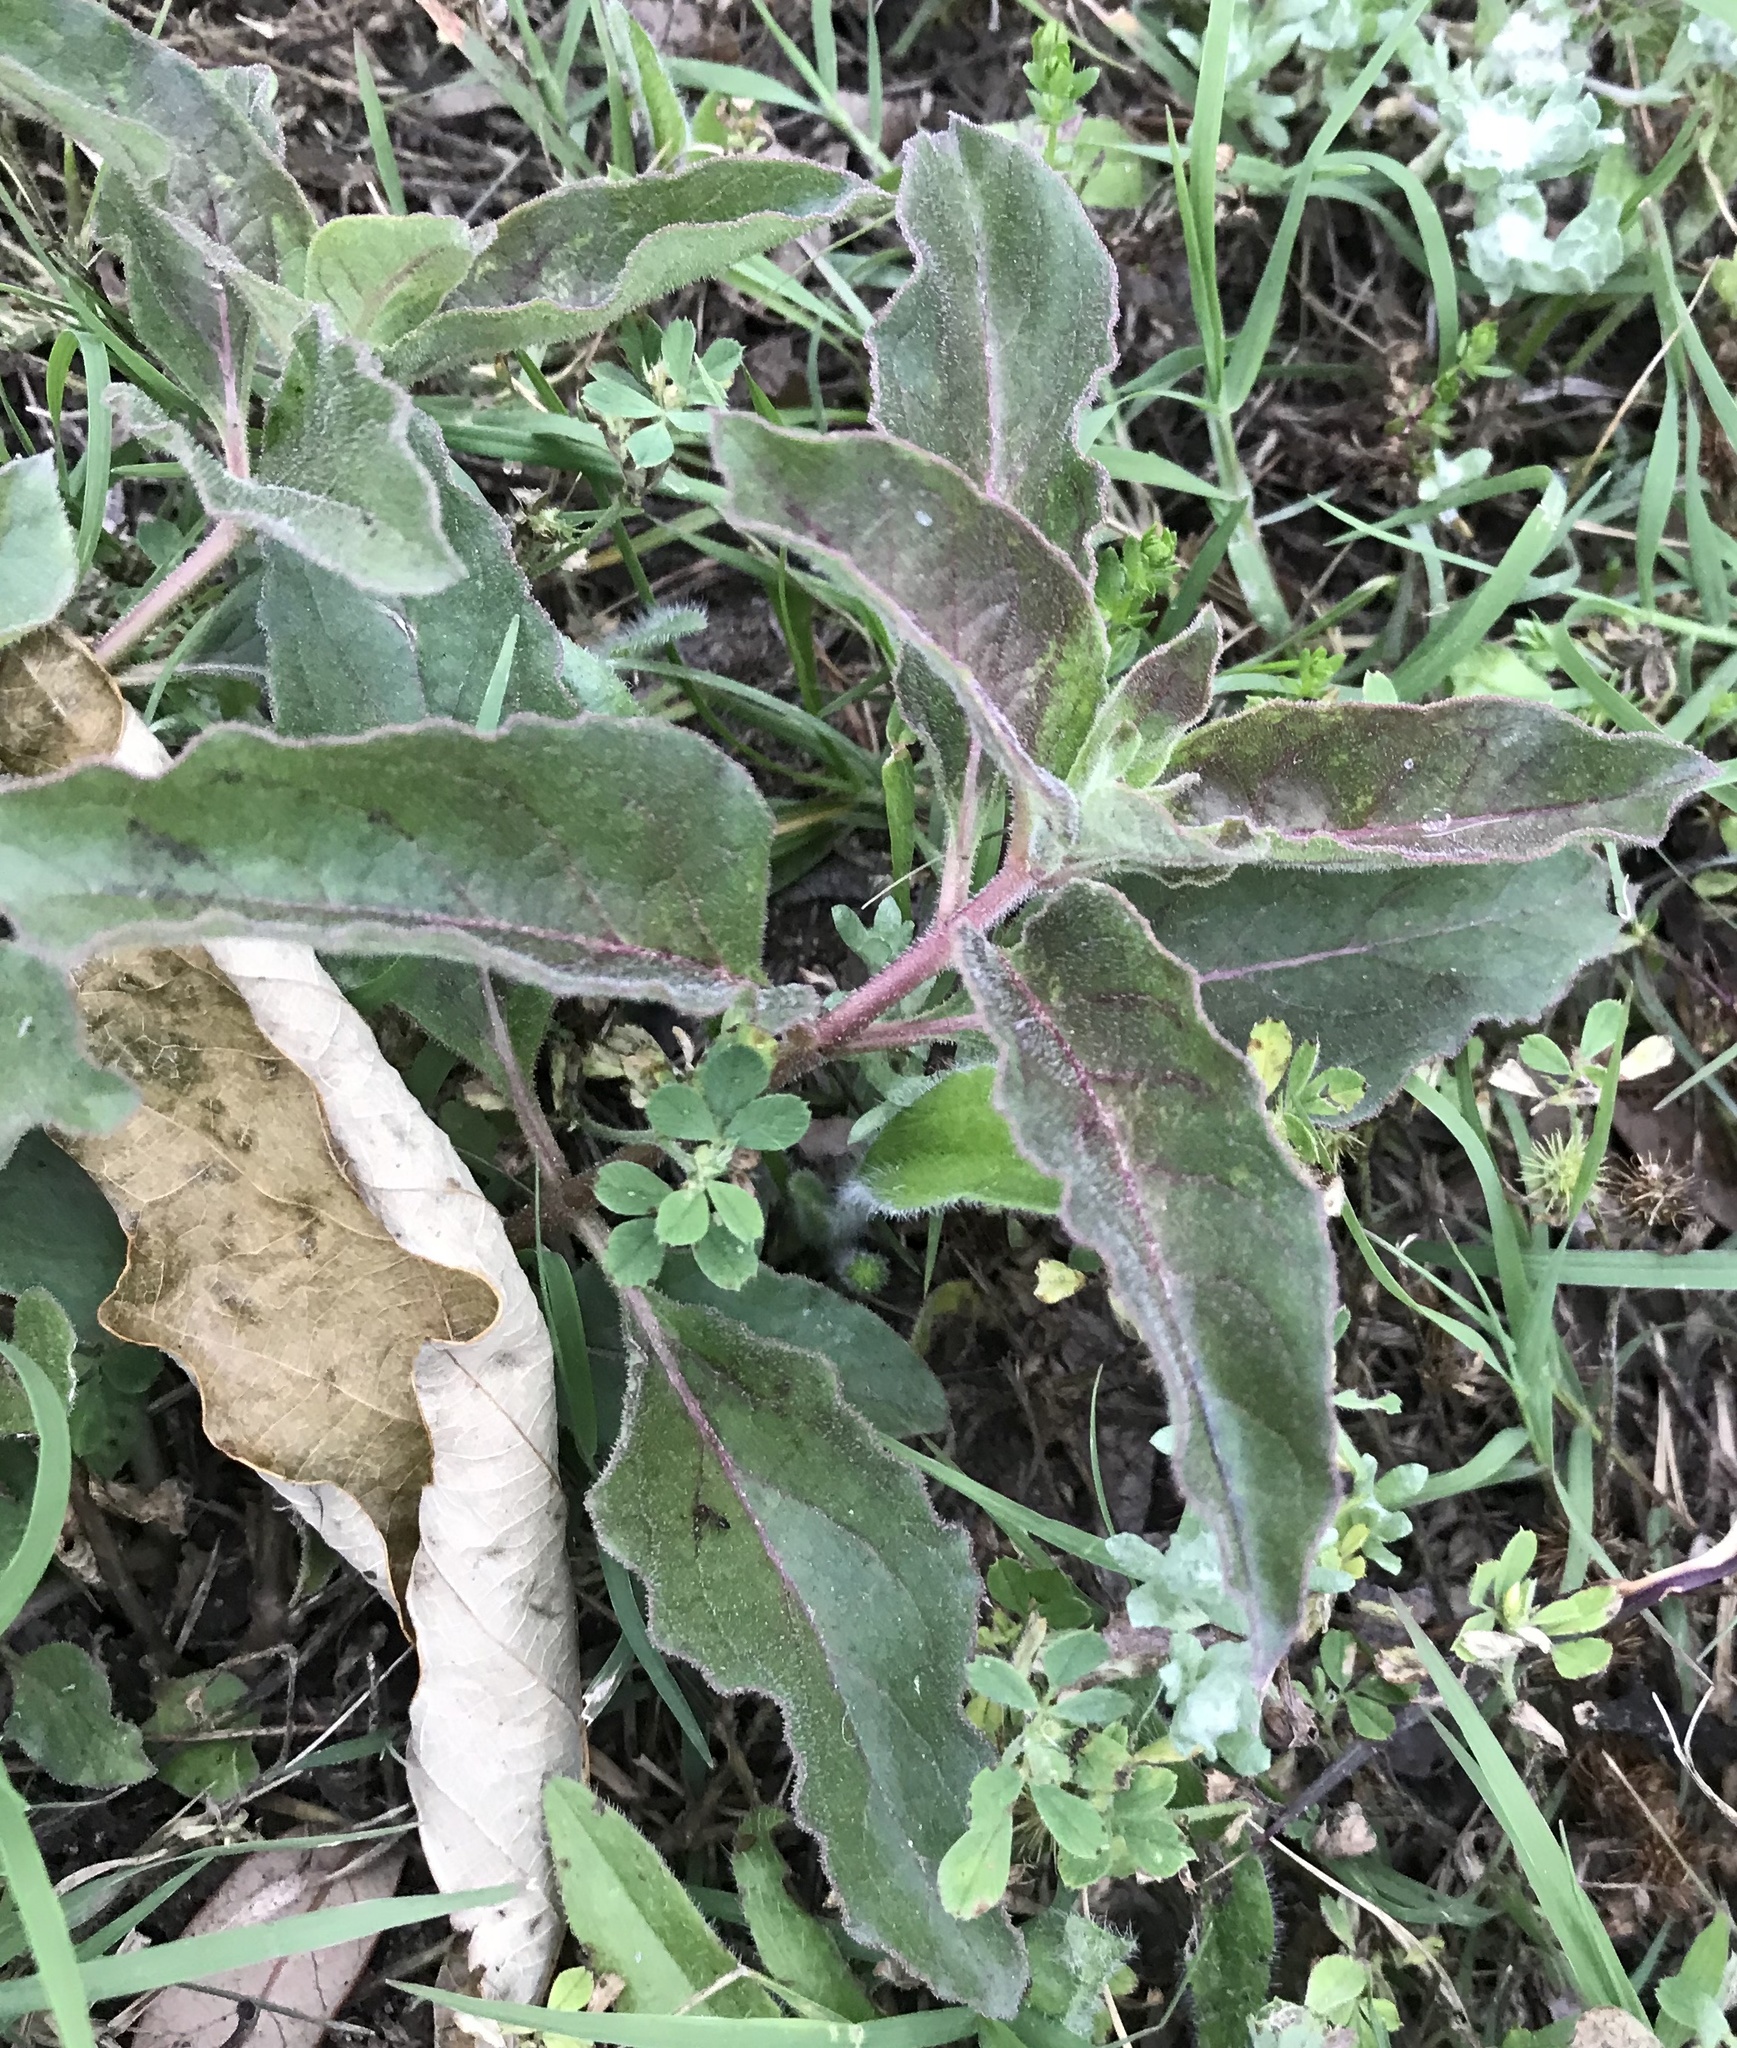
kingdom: Plantae
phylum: Tracheophyta
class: Magnoliopsida
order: Gentianales
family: Apocynaceae
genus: Asclepias
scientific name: Asclepias oenotheroides
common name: Zizotes milkweed
